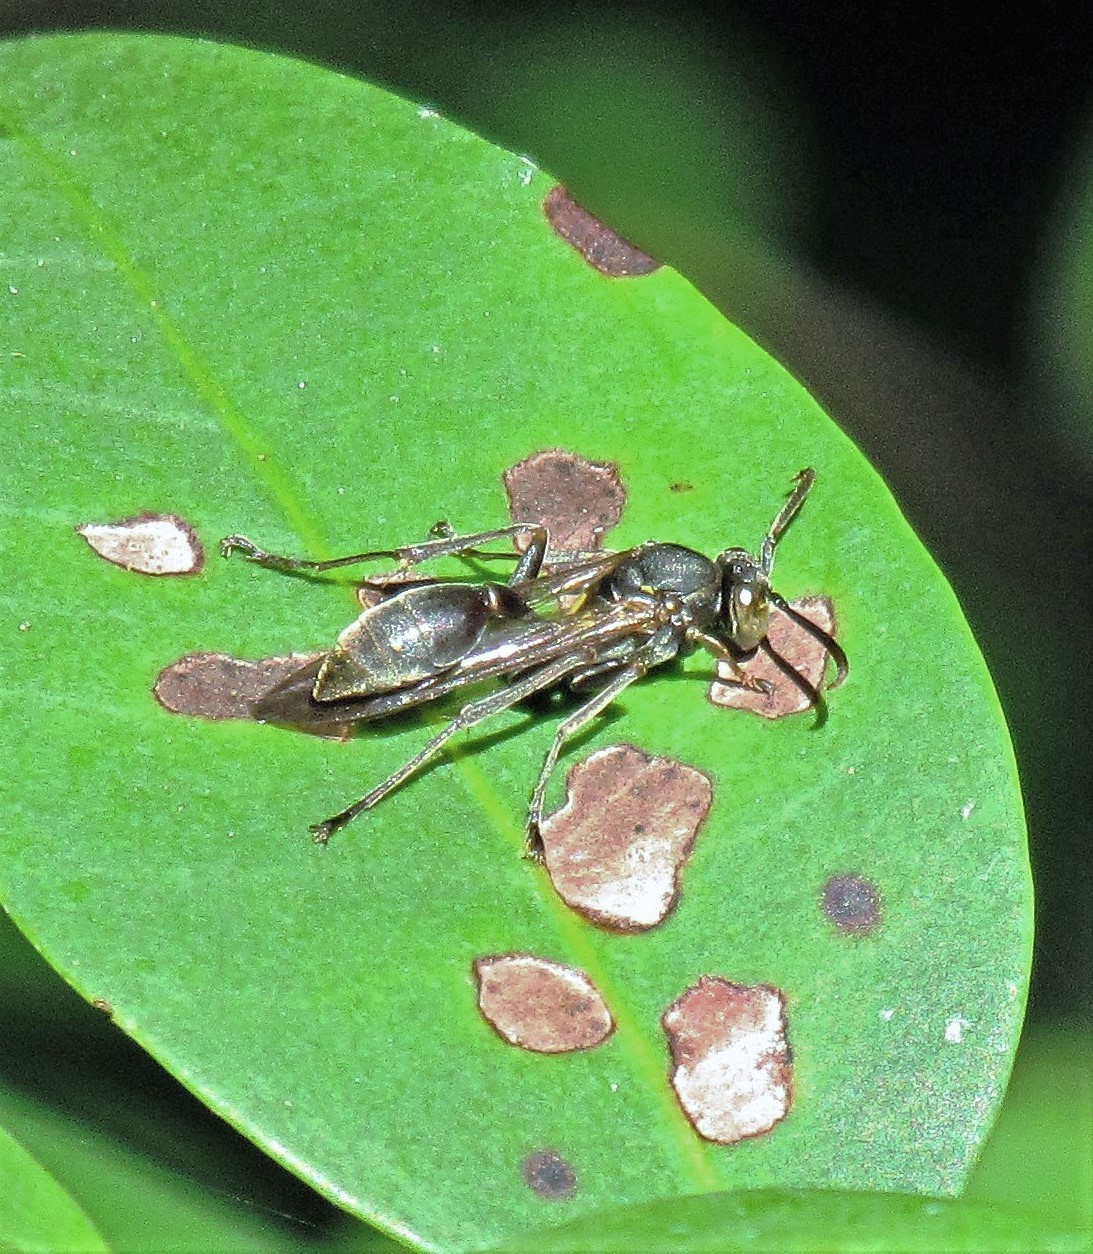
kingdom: Animalia
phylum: Arthropoda
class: Insecta
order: Hymenoptera
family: Eumenidae
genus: Polybia
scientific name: Polybia ignobilis
